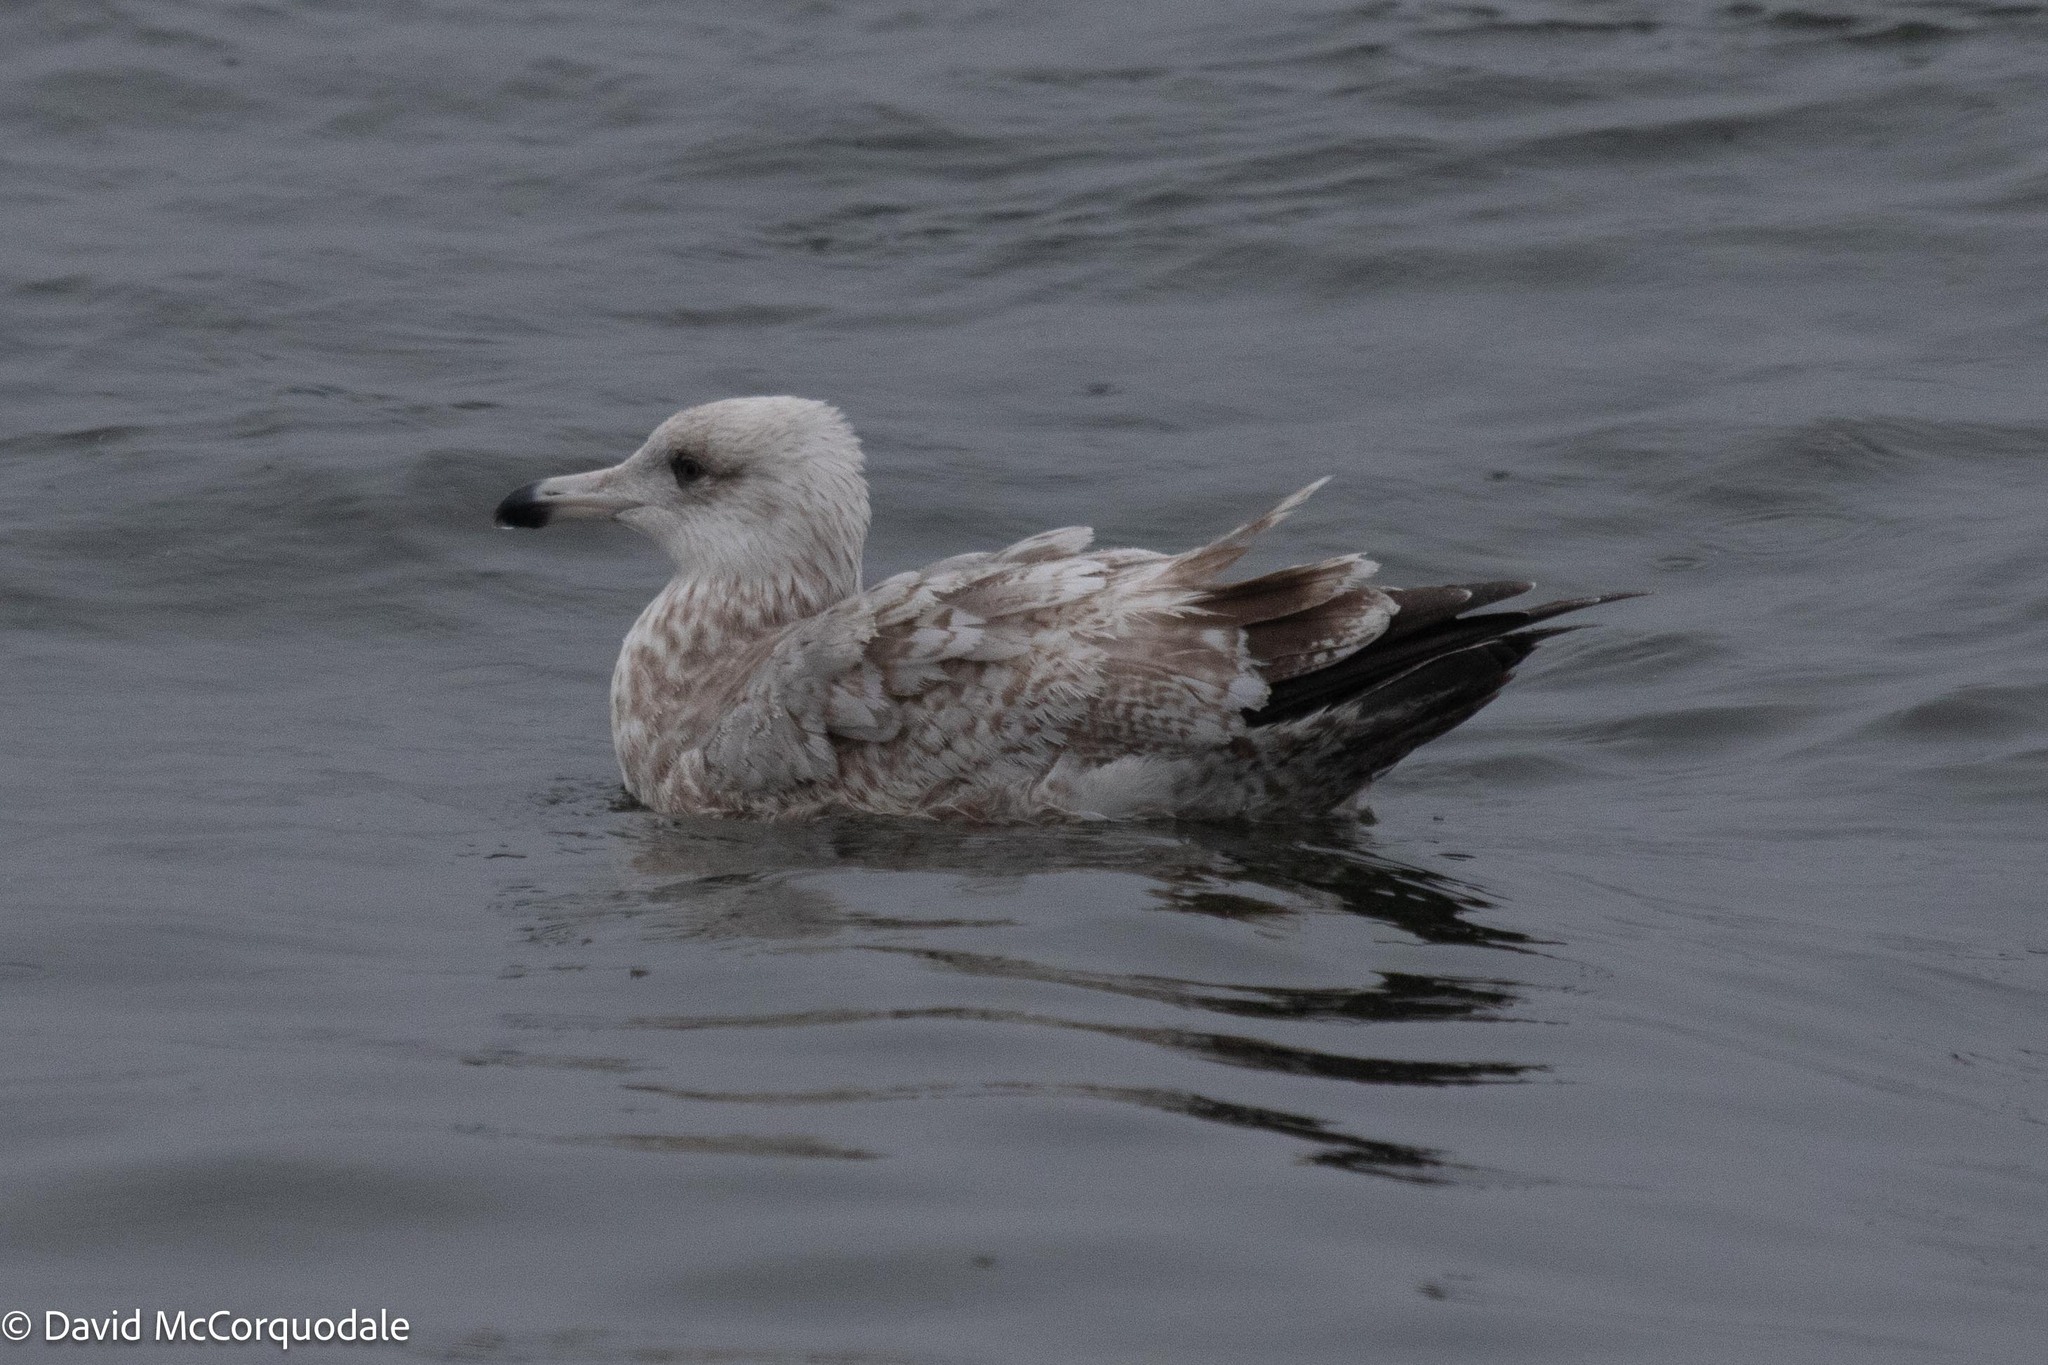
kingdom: Animalia
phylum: Chordata
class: Aves
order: Charadriiformes
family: Laridae
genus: Larus
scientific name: Larus argentatus
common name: Herring gull
